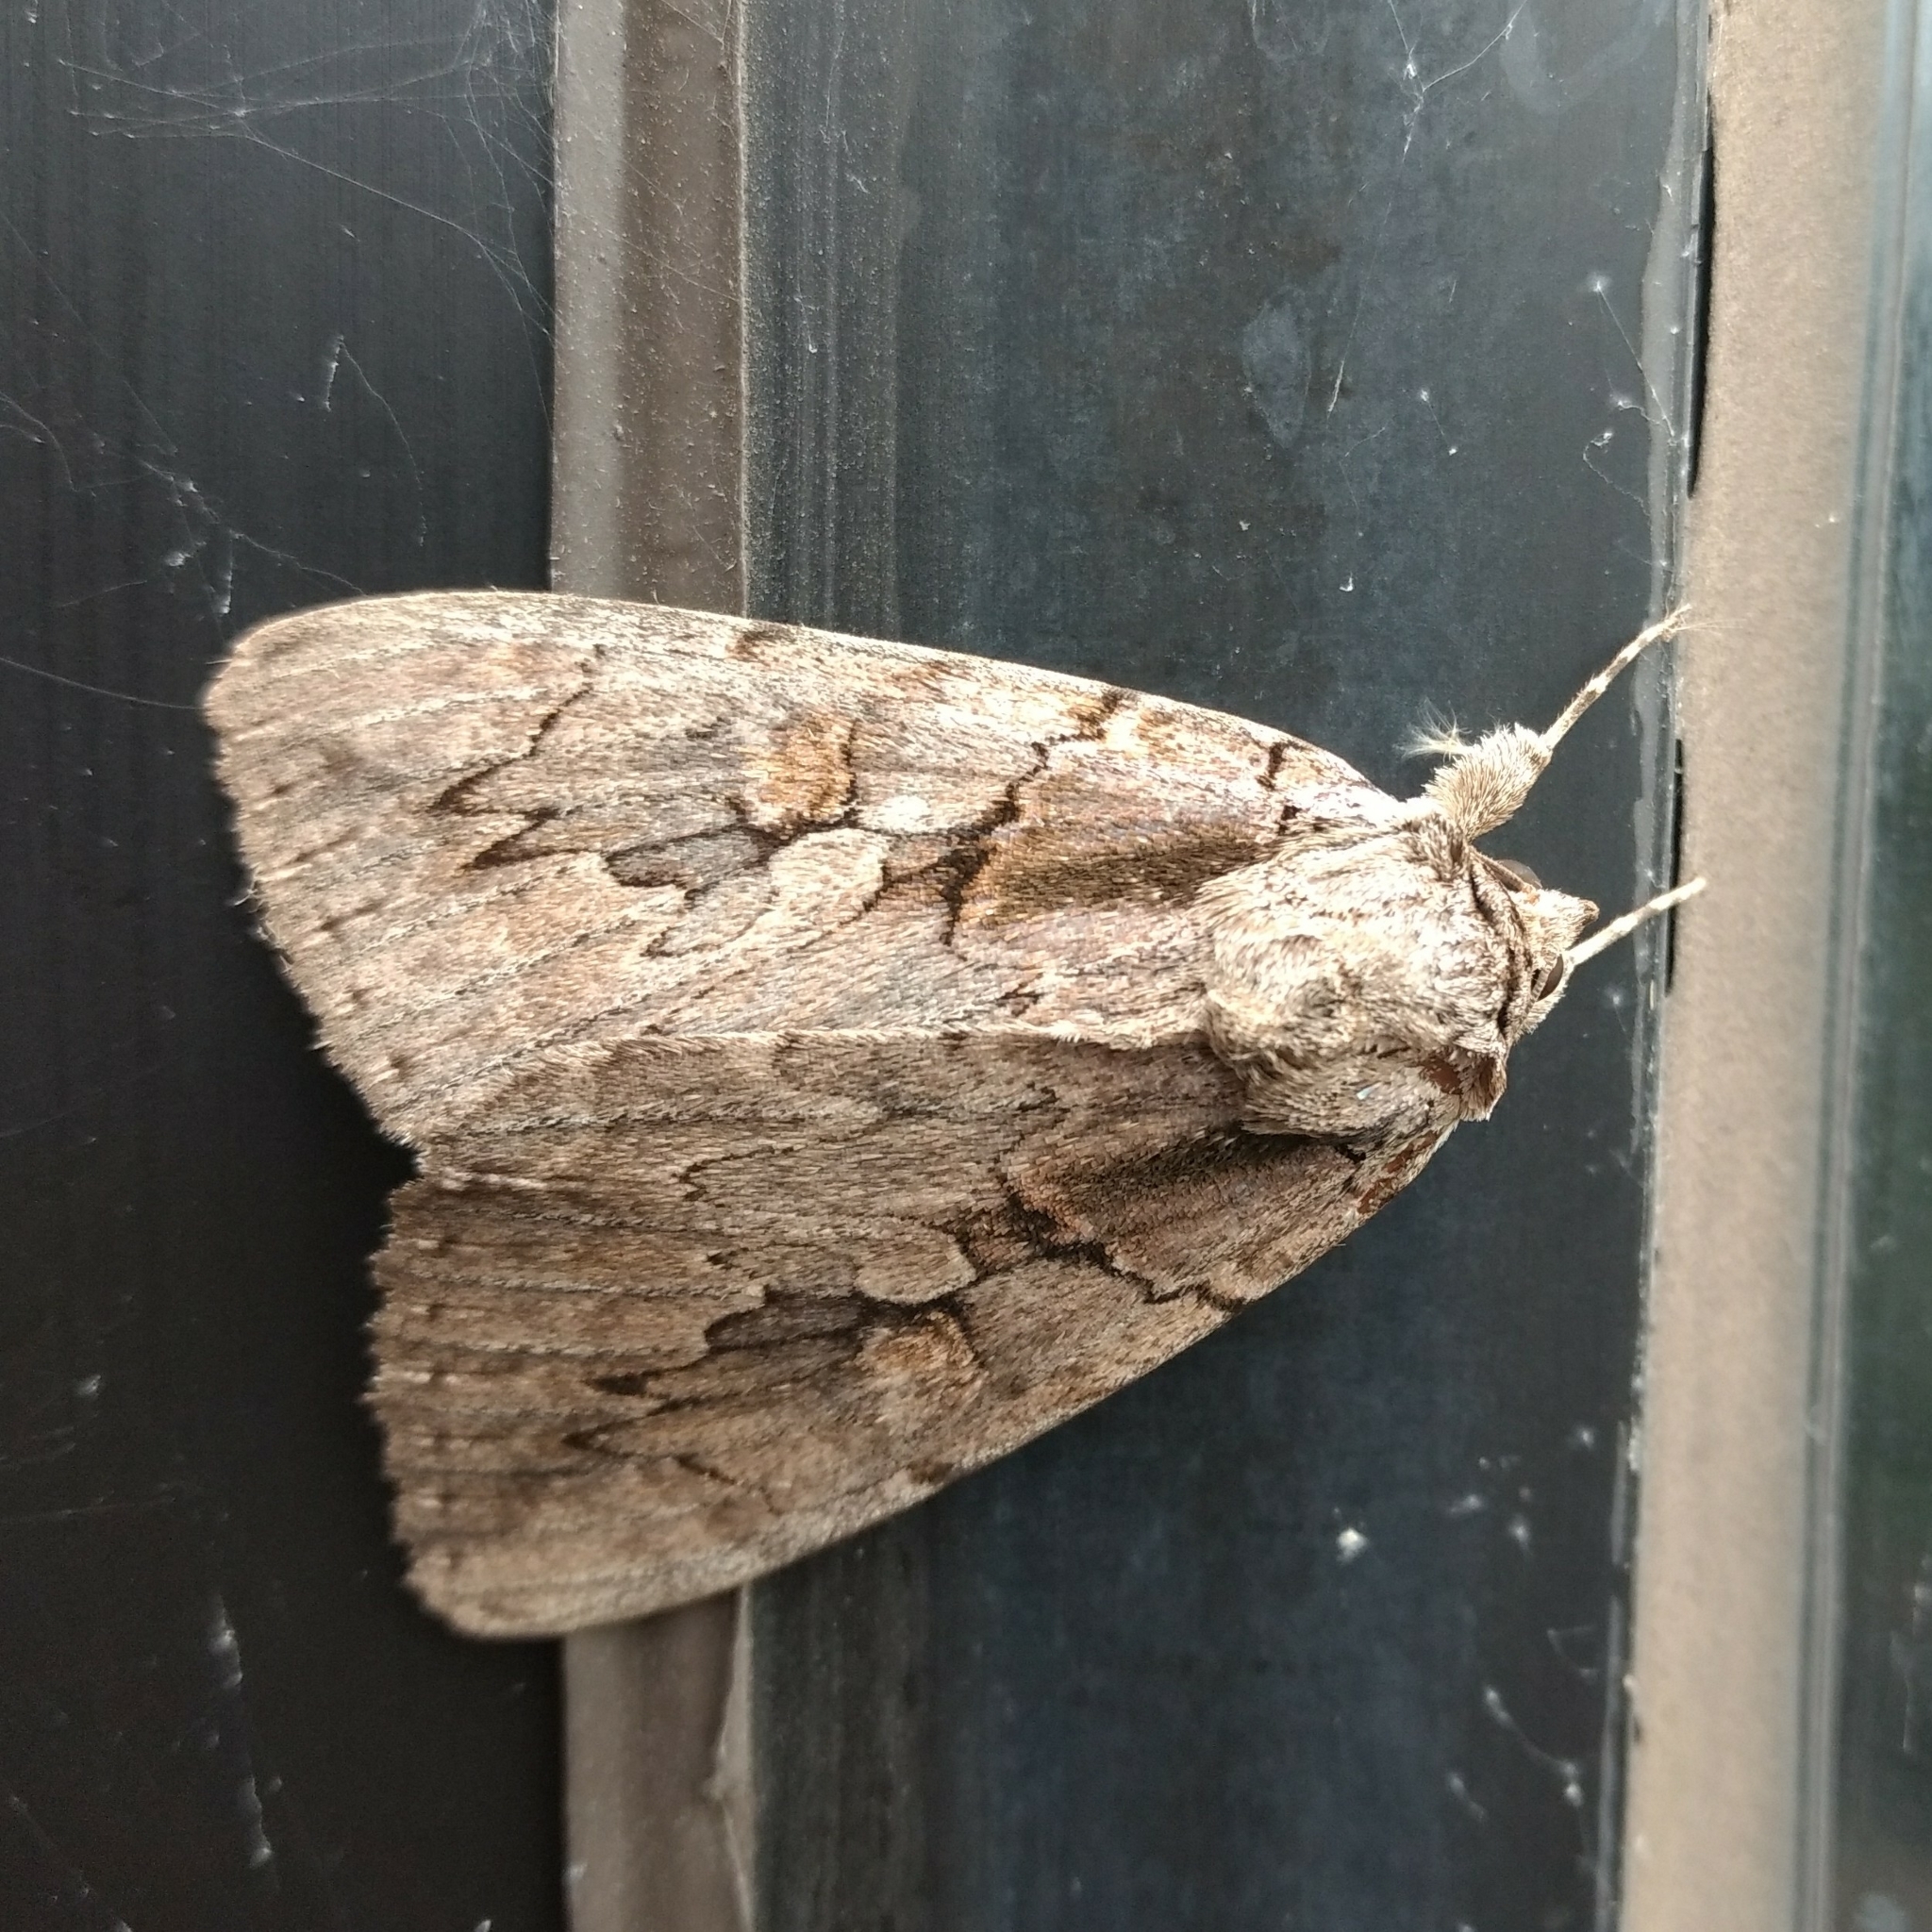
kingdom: Animalia
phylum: Arthropoda
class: Insecta
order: Lepidoptera
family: Erebidae
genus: Catocala
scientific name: Catocala amatrix
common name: Sweetheart underwing
